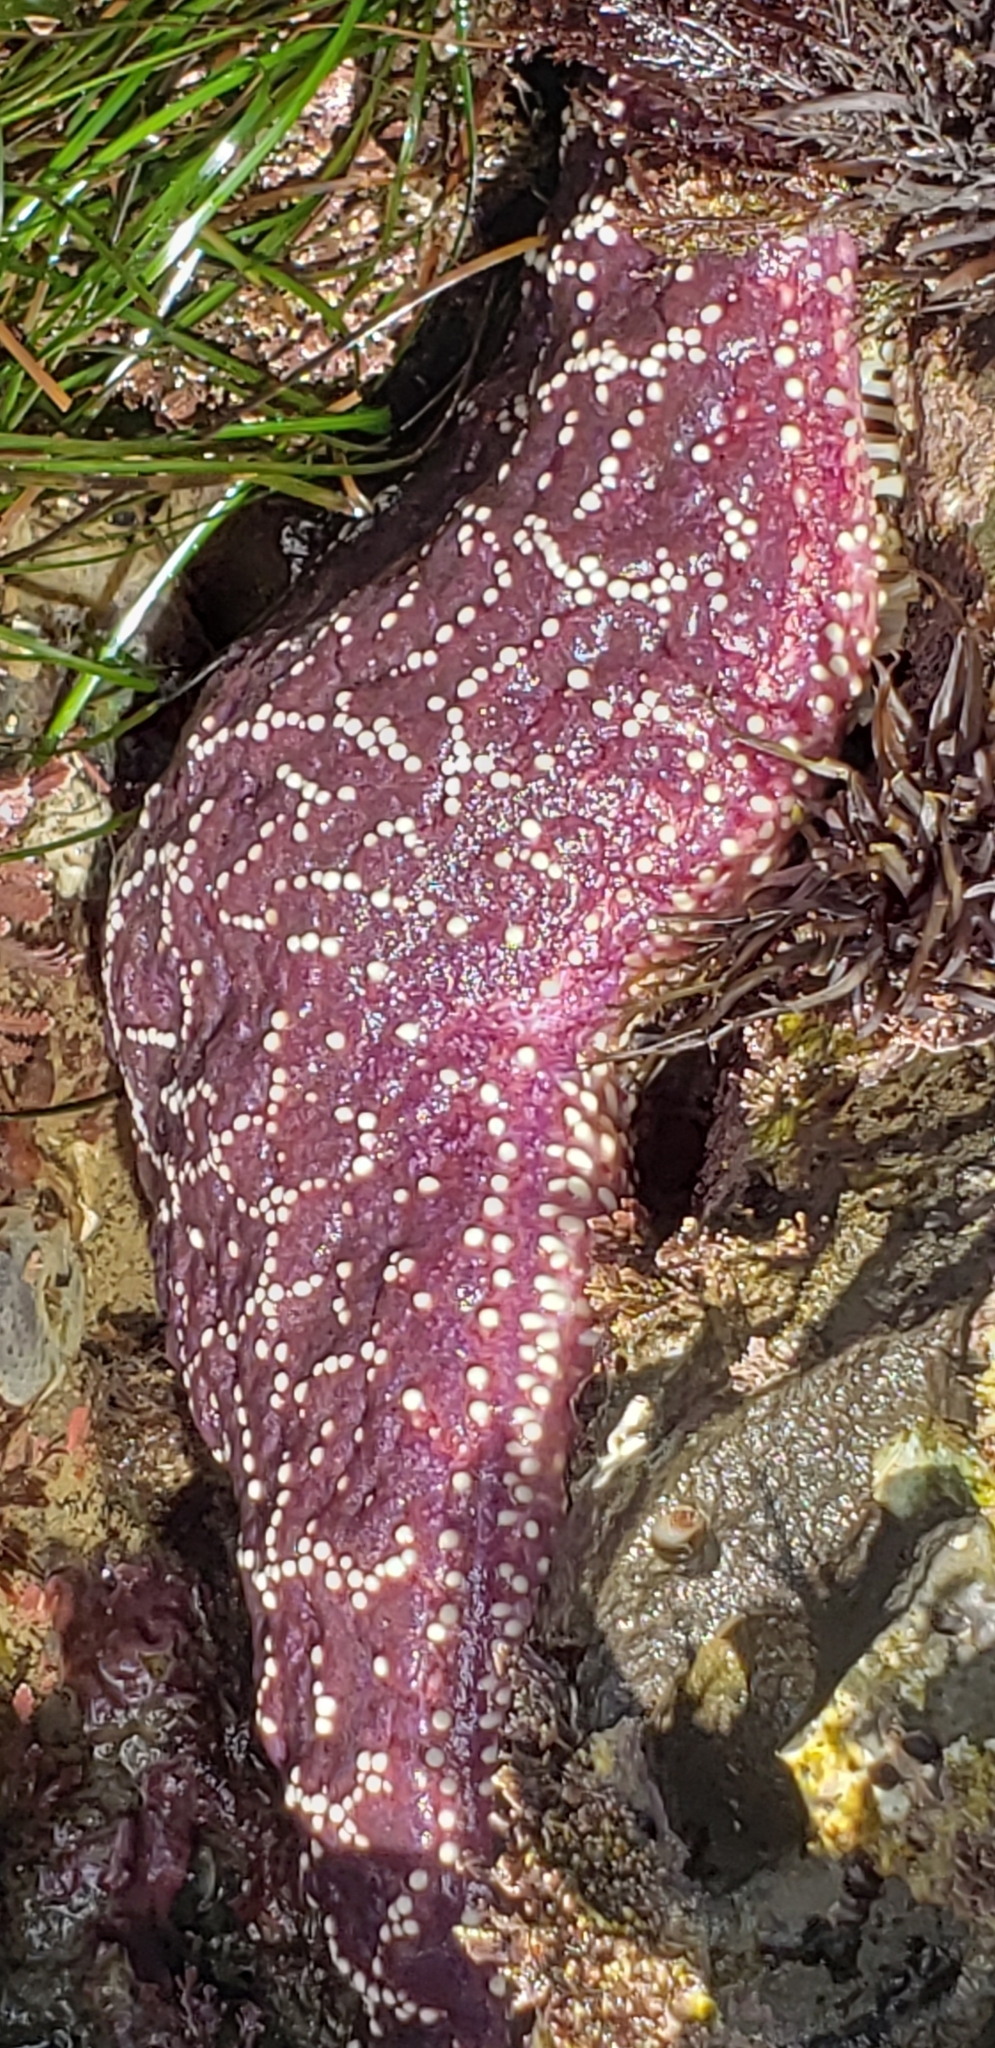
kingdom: Animalia
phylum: Echinodermata
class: Asteroidea
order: Forcipulatida
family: Asteriidae
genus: Pisaster
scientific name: Pisaster ochraceus
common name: Ochre stars
